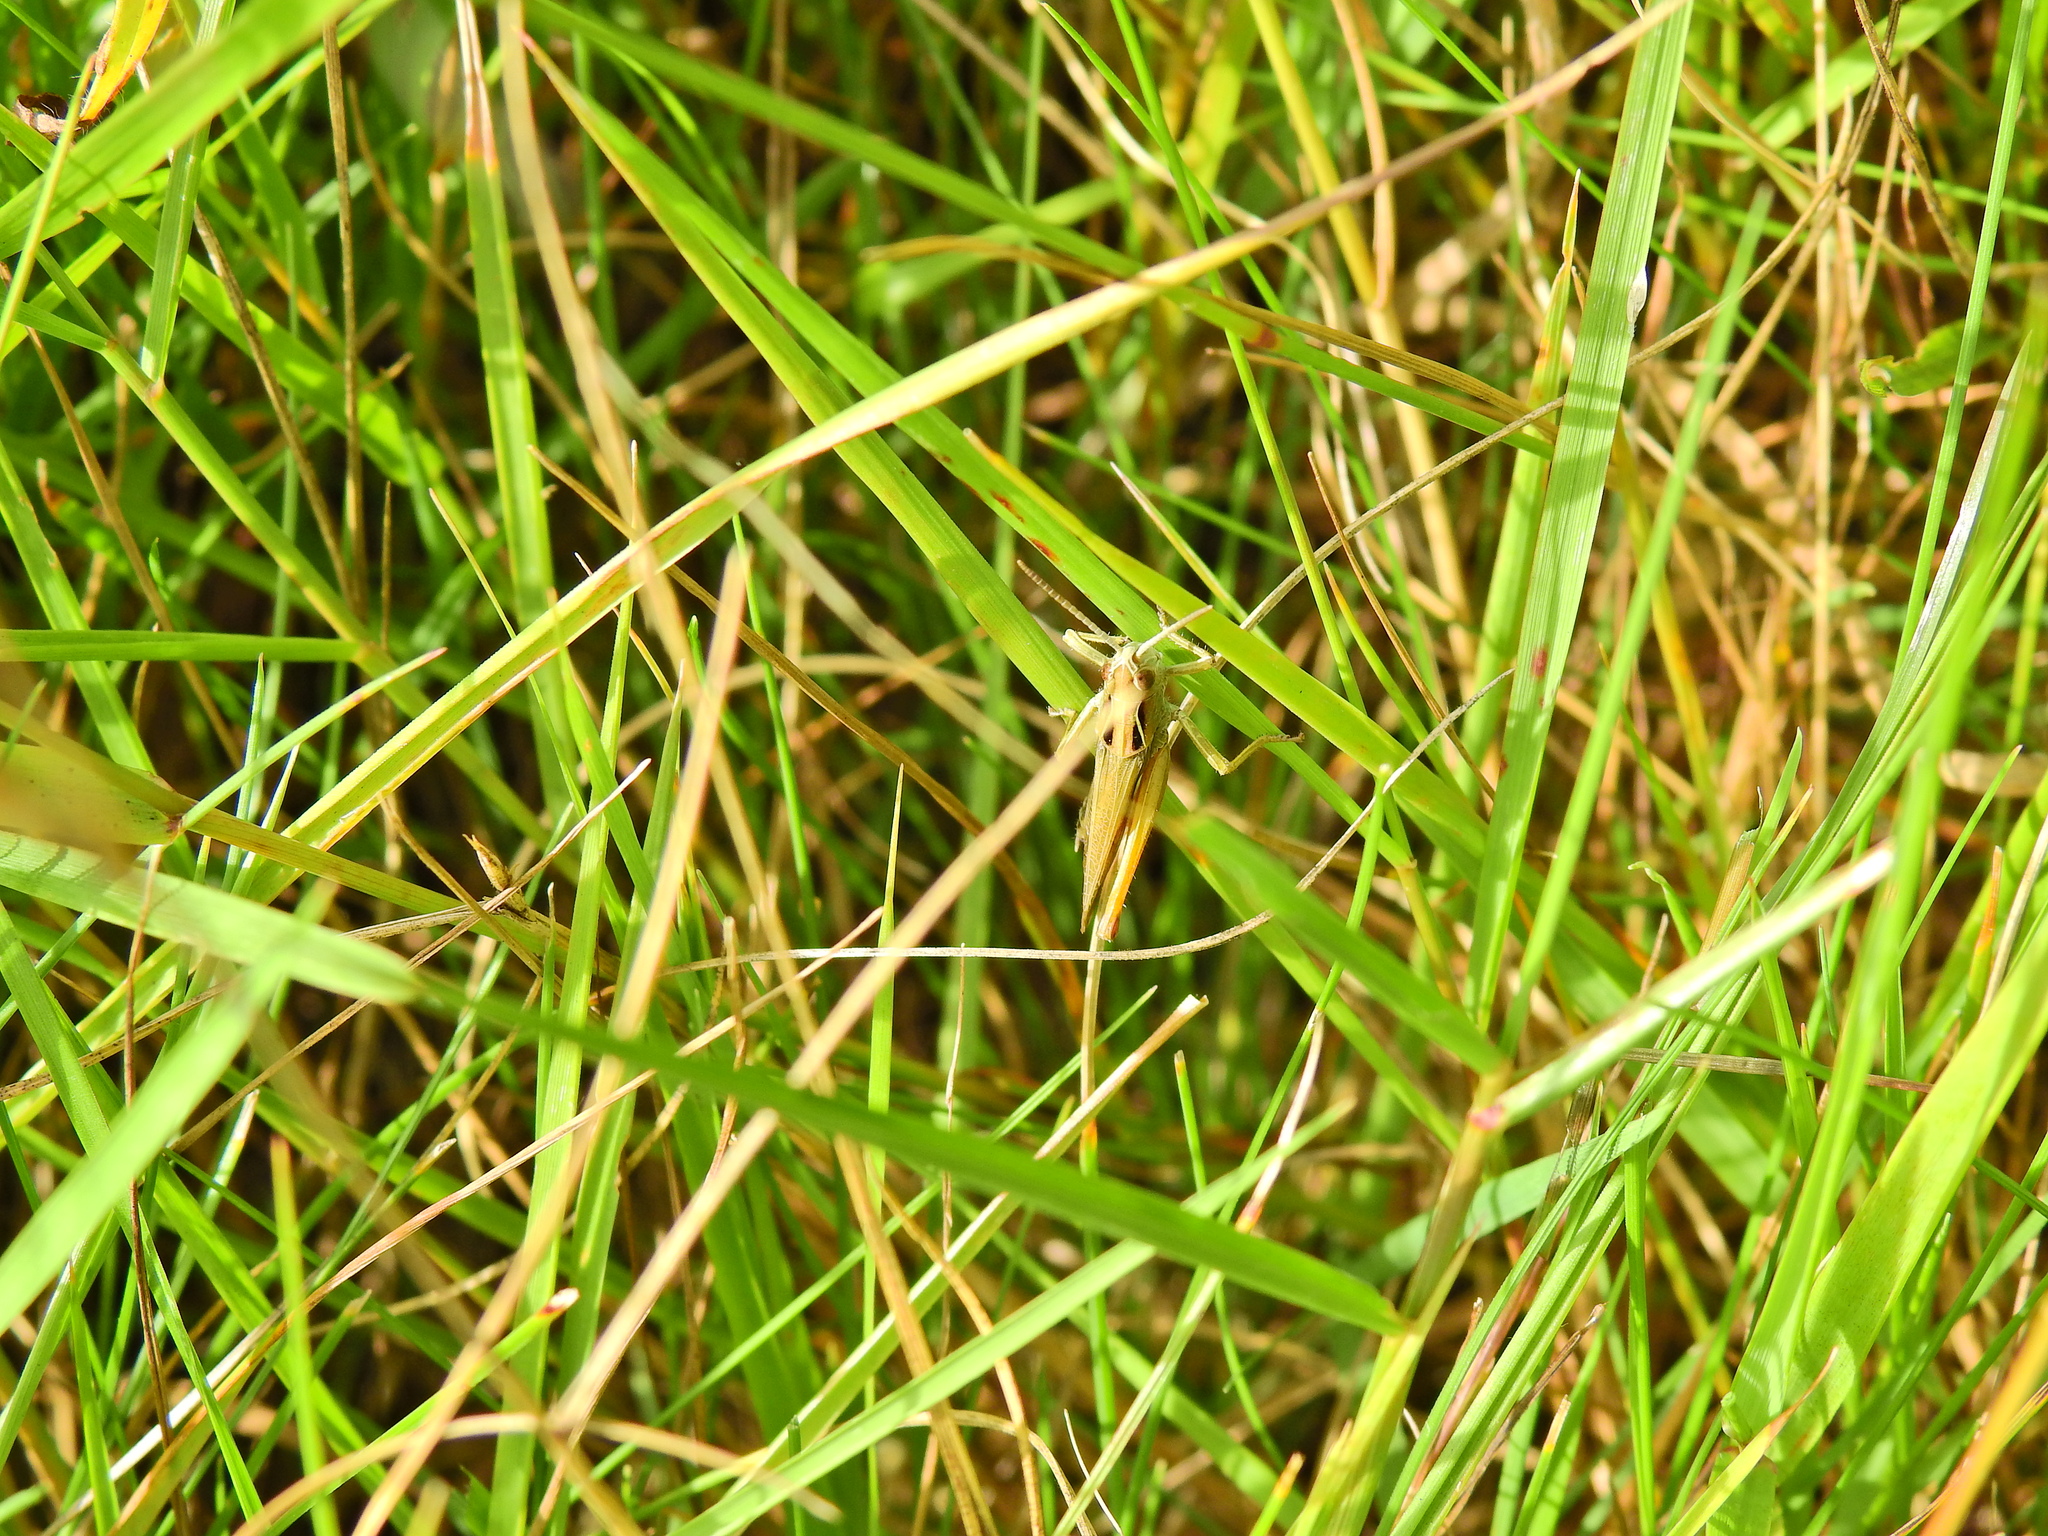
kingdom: Animalia
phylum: Arthropoda
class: Insecta
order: Orthoptera
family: Acrididae
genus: Omocestus
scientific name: Omocestus viridulus
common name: Common green grasshopper
